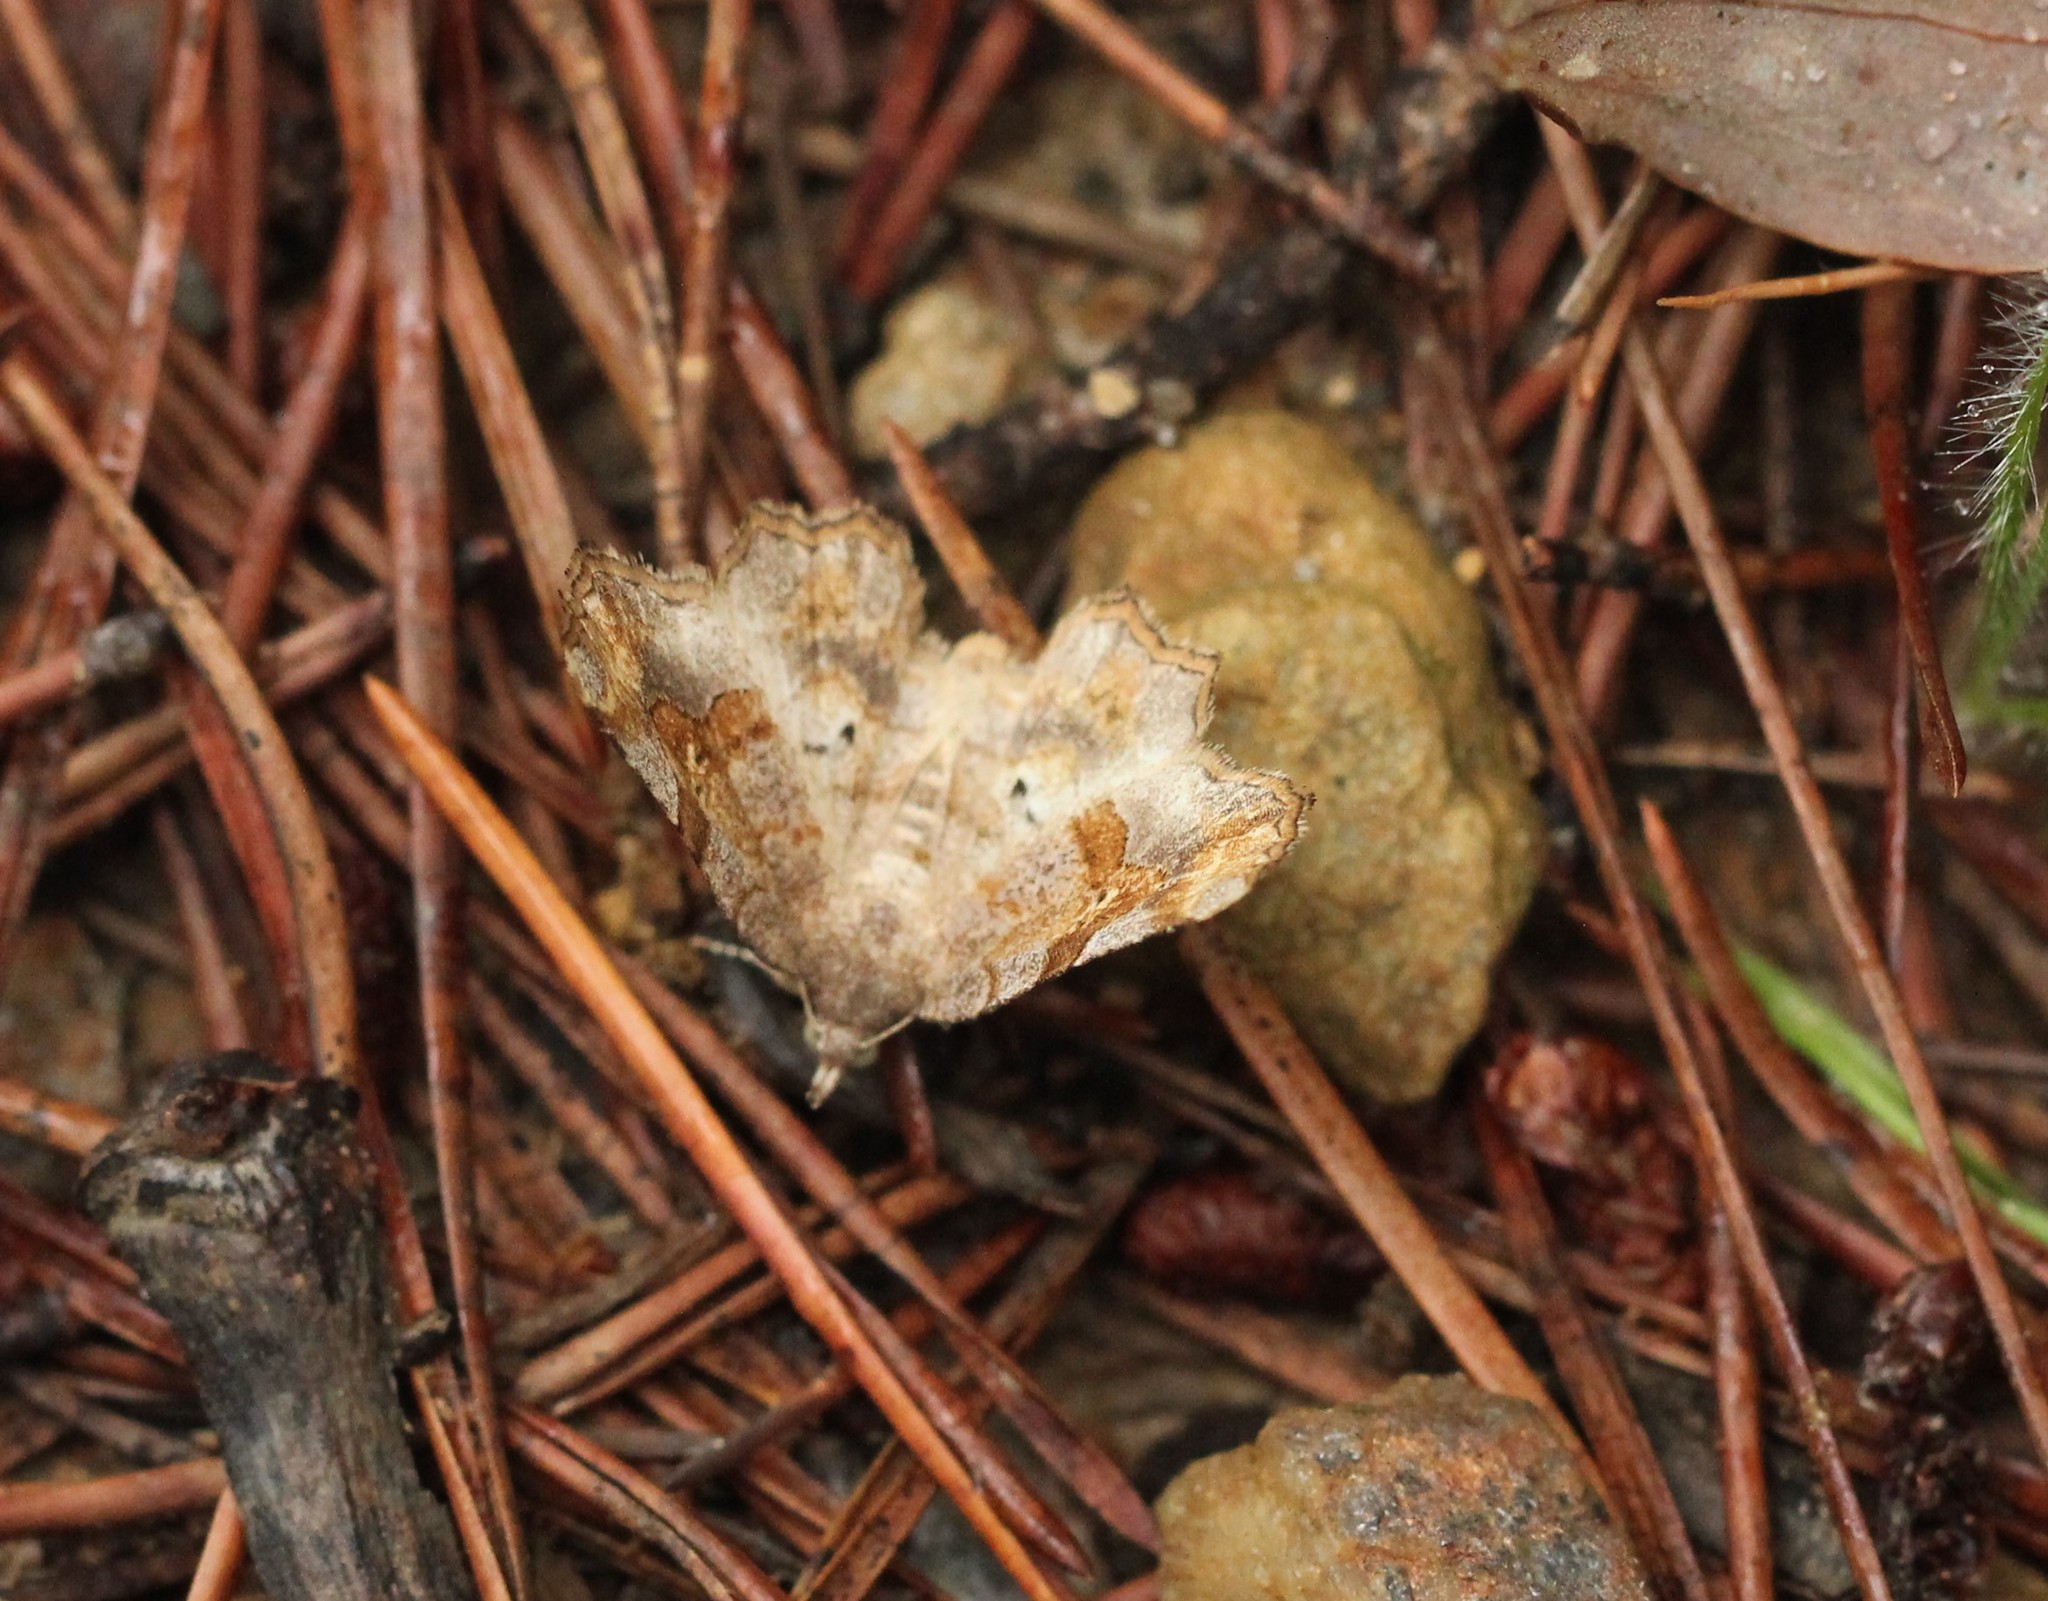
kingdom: Animalia
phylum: Arthropoda
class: Insecta
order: Lepidoptera
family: Erebidae
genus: Pangrapta
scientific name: Pangrapta decoralis
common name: Decorated owlet
